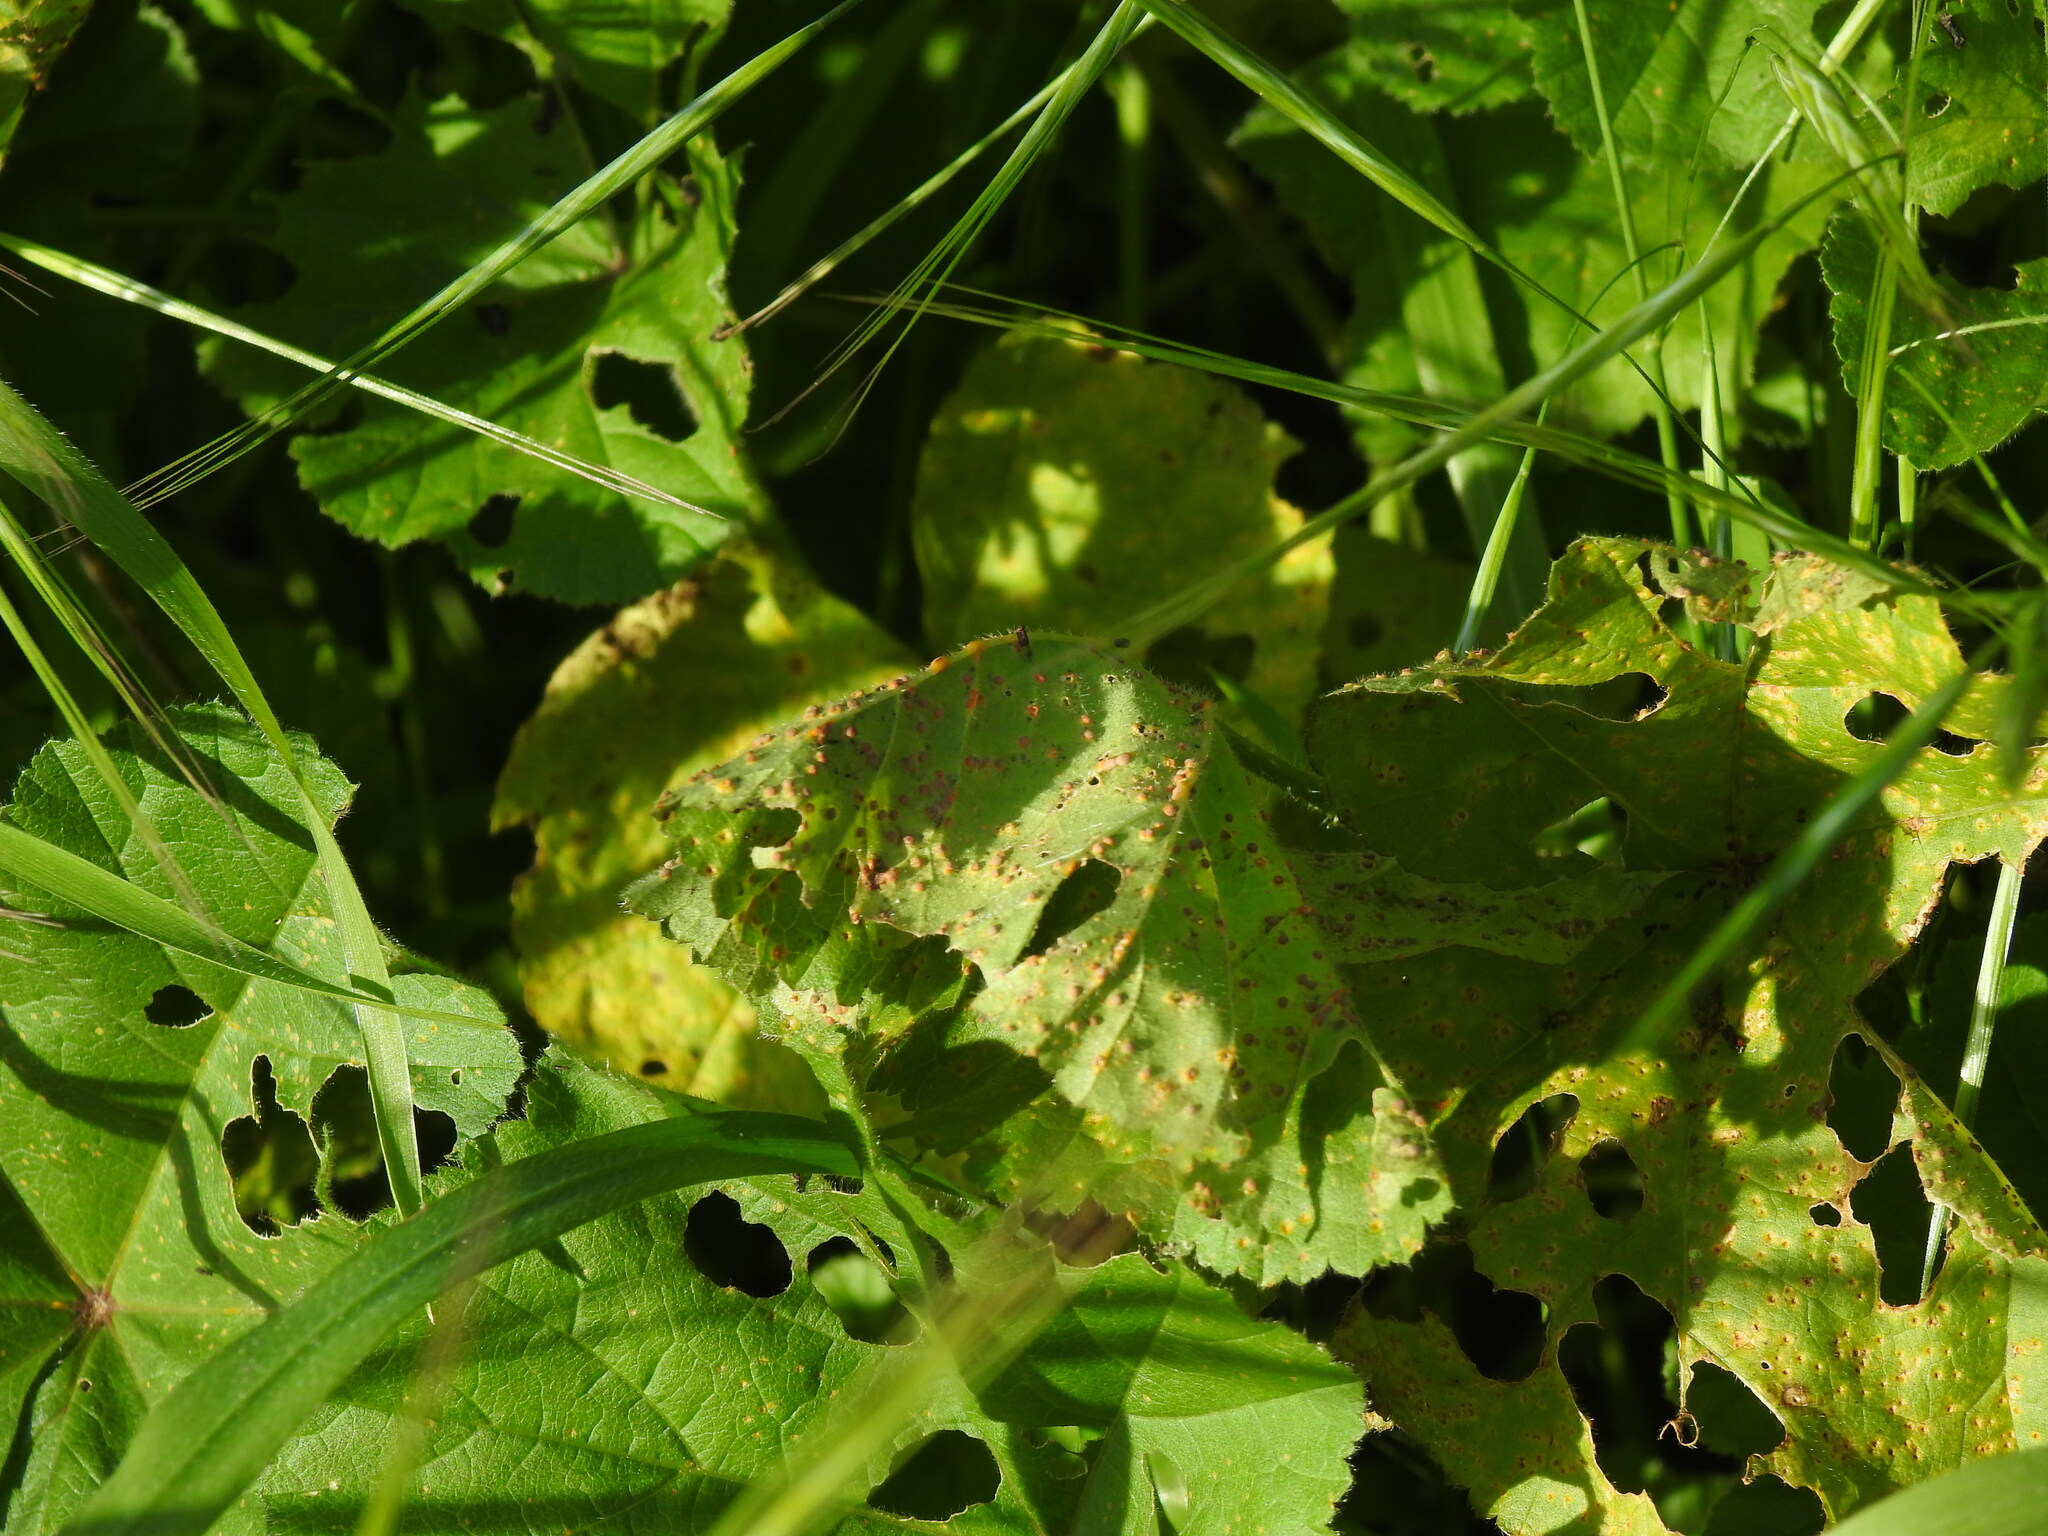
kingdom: Fungi
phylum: Basidiomycota
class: Pucciniomycetes
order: Pucciniales
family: Pucciniaceae
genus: Puccinia
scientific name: Puccinia malvacearum
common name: Hollyhock rust
